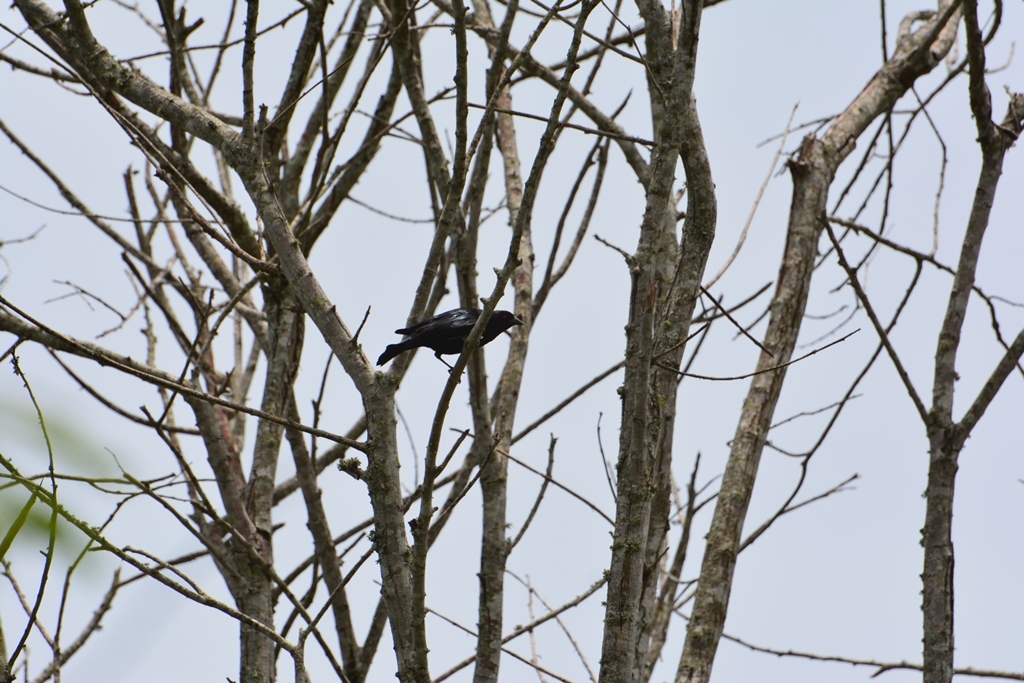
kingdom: Animalia
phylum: Chordata
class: Aves
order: Passeriformes
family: Icteridae
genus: Molothrus
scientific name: Molothrus aeneus
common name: Bronzed cowbird
